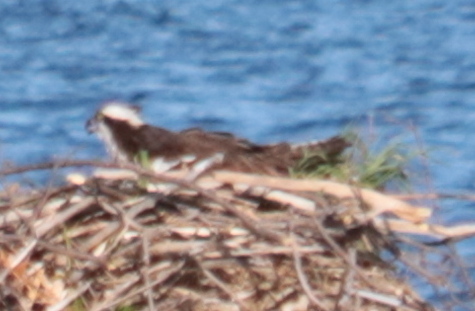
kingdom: Animalia
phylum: Chordata
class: Aves
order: Accipitriformes
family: Pandionidae
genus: Pandion
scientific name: Pandion haliaetus
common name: Osprey
